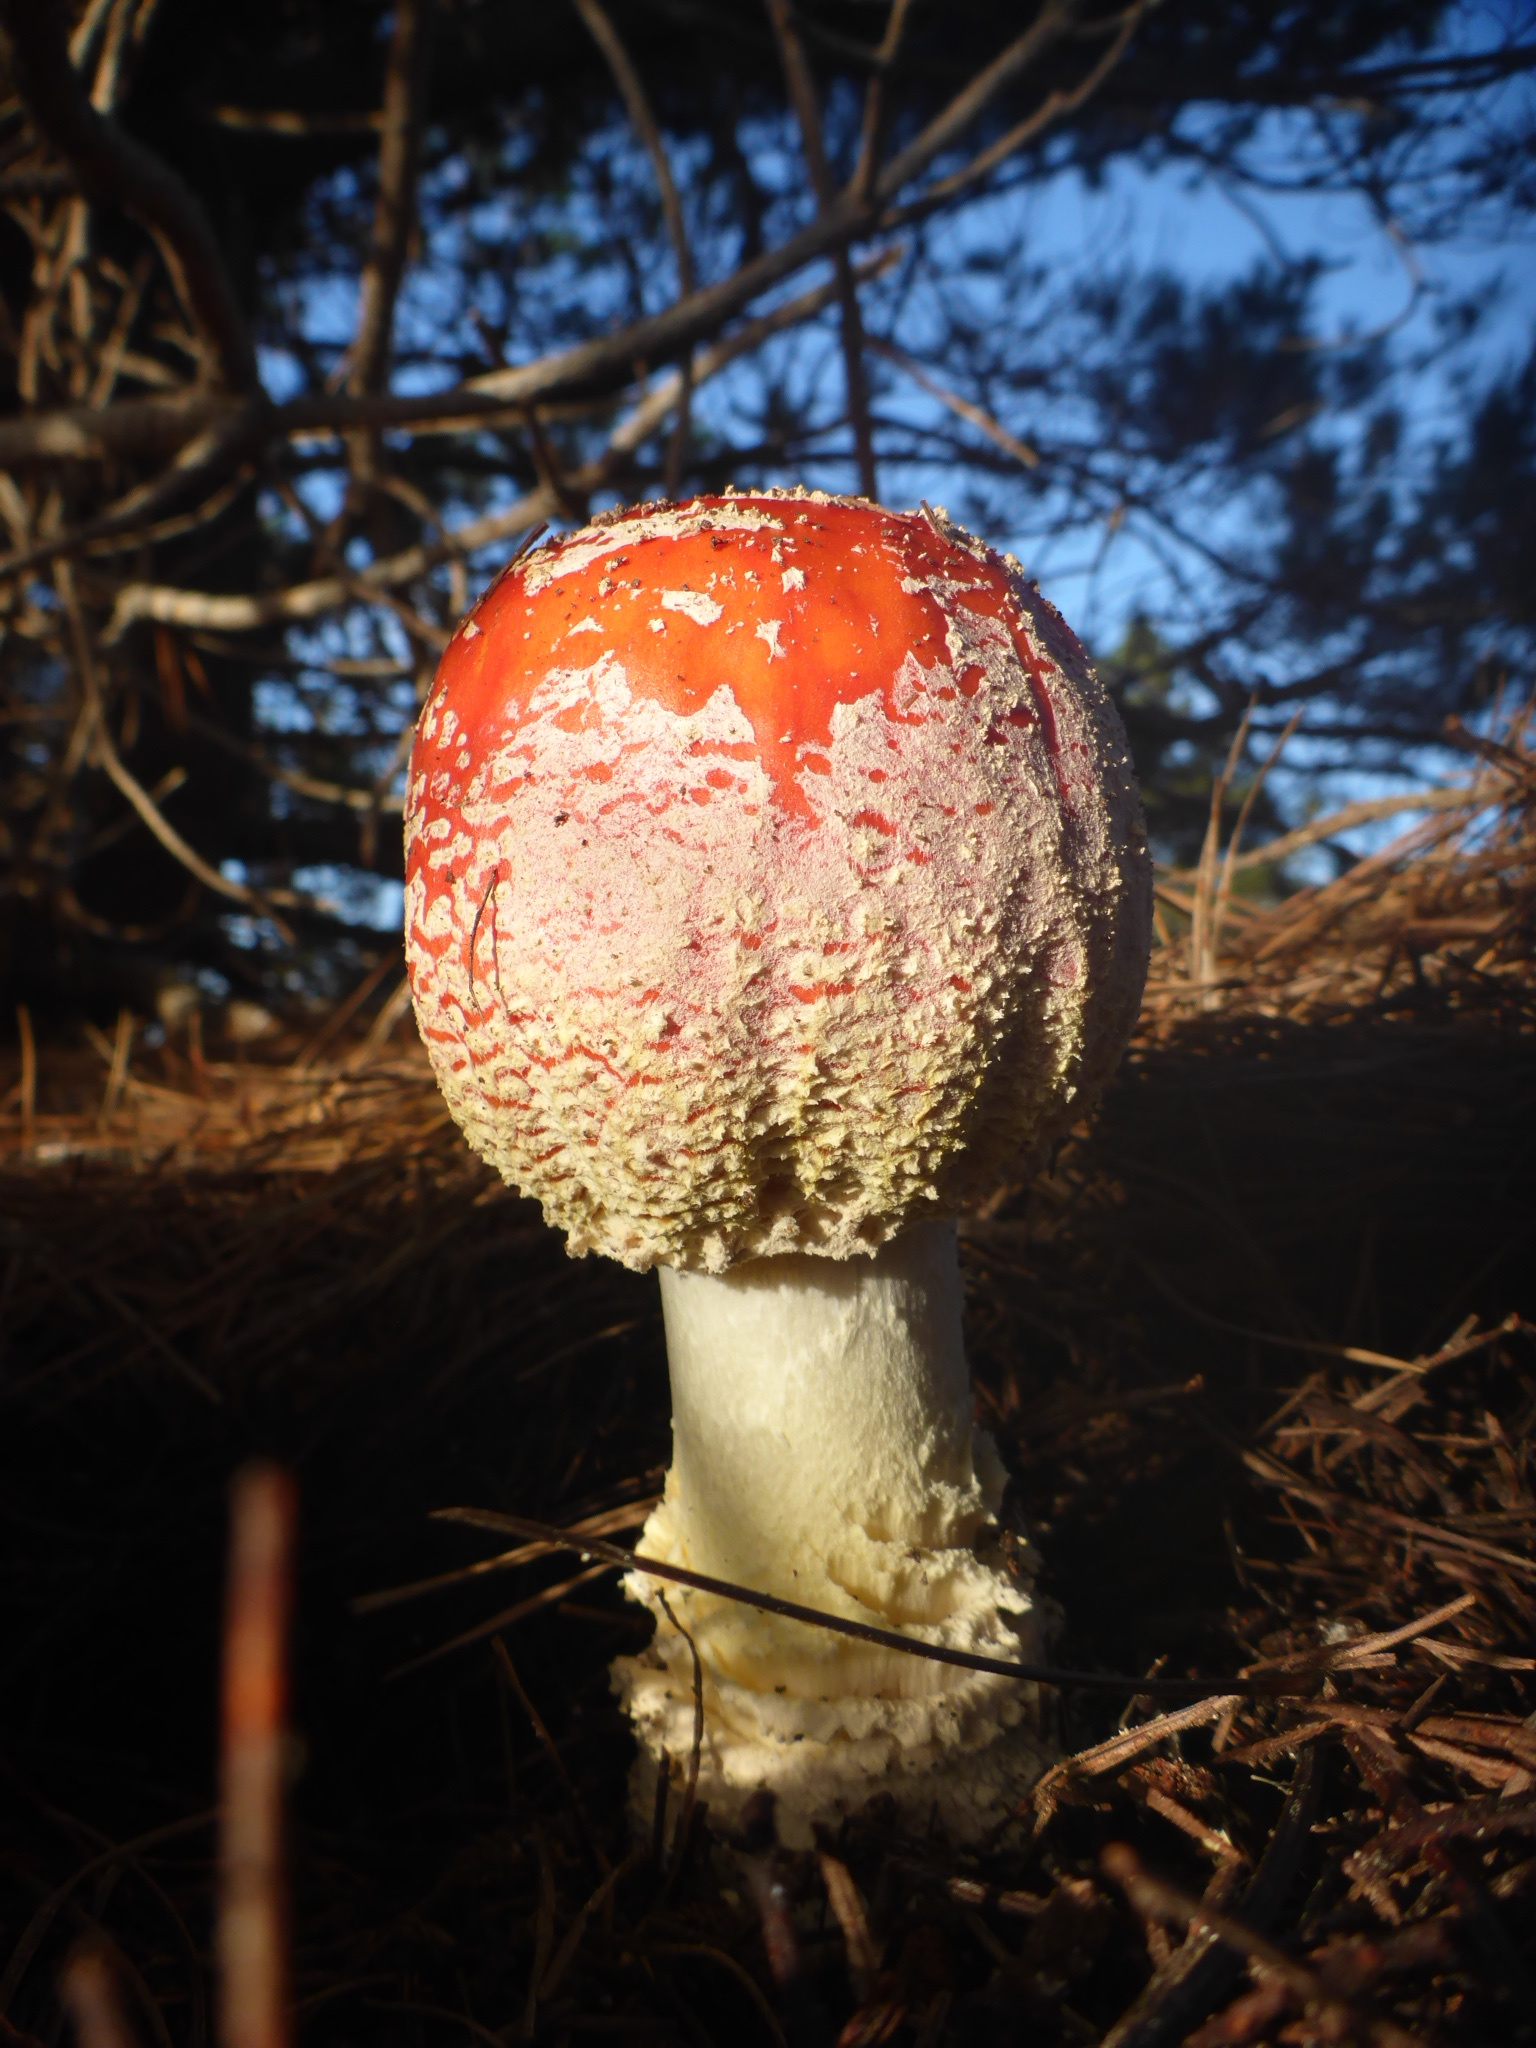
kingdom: Fungi
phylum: Basidiomycota
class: Agaricomycetes
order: Agaricales
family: Amanitaceae
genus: Amanita
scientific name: Amanita muscaria
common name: Fly agaric
